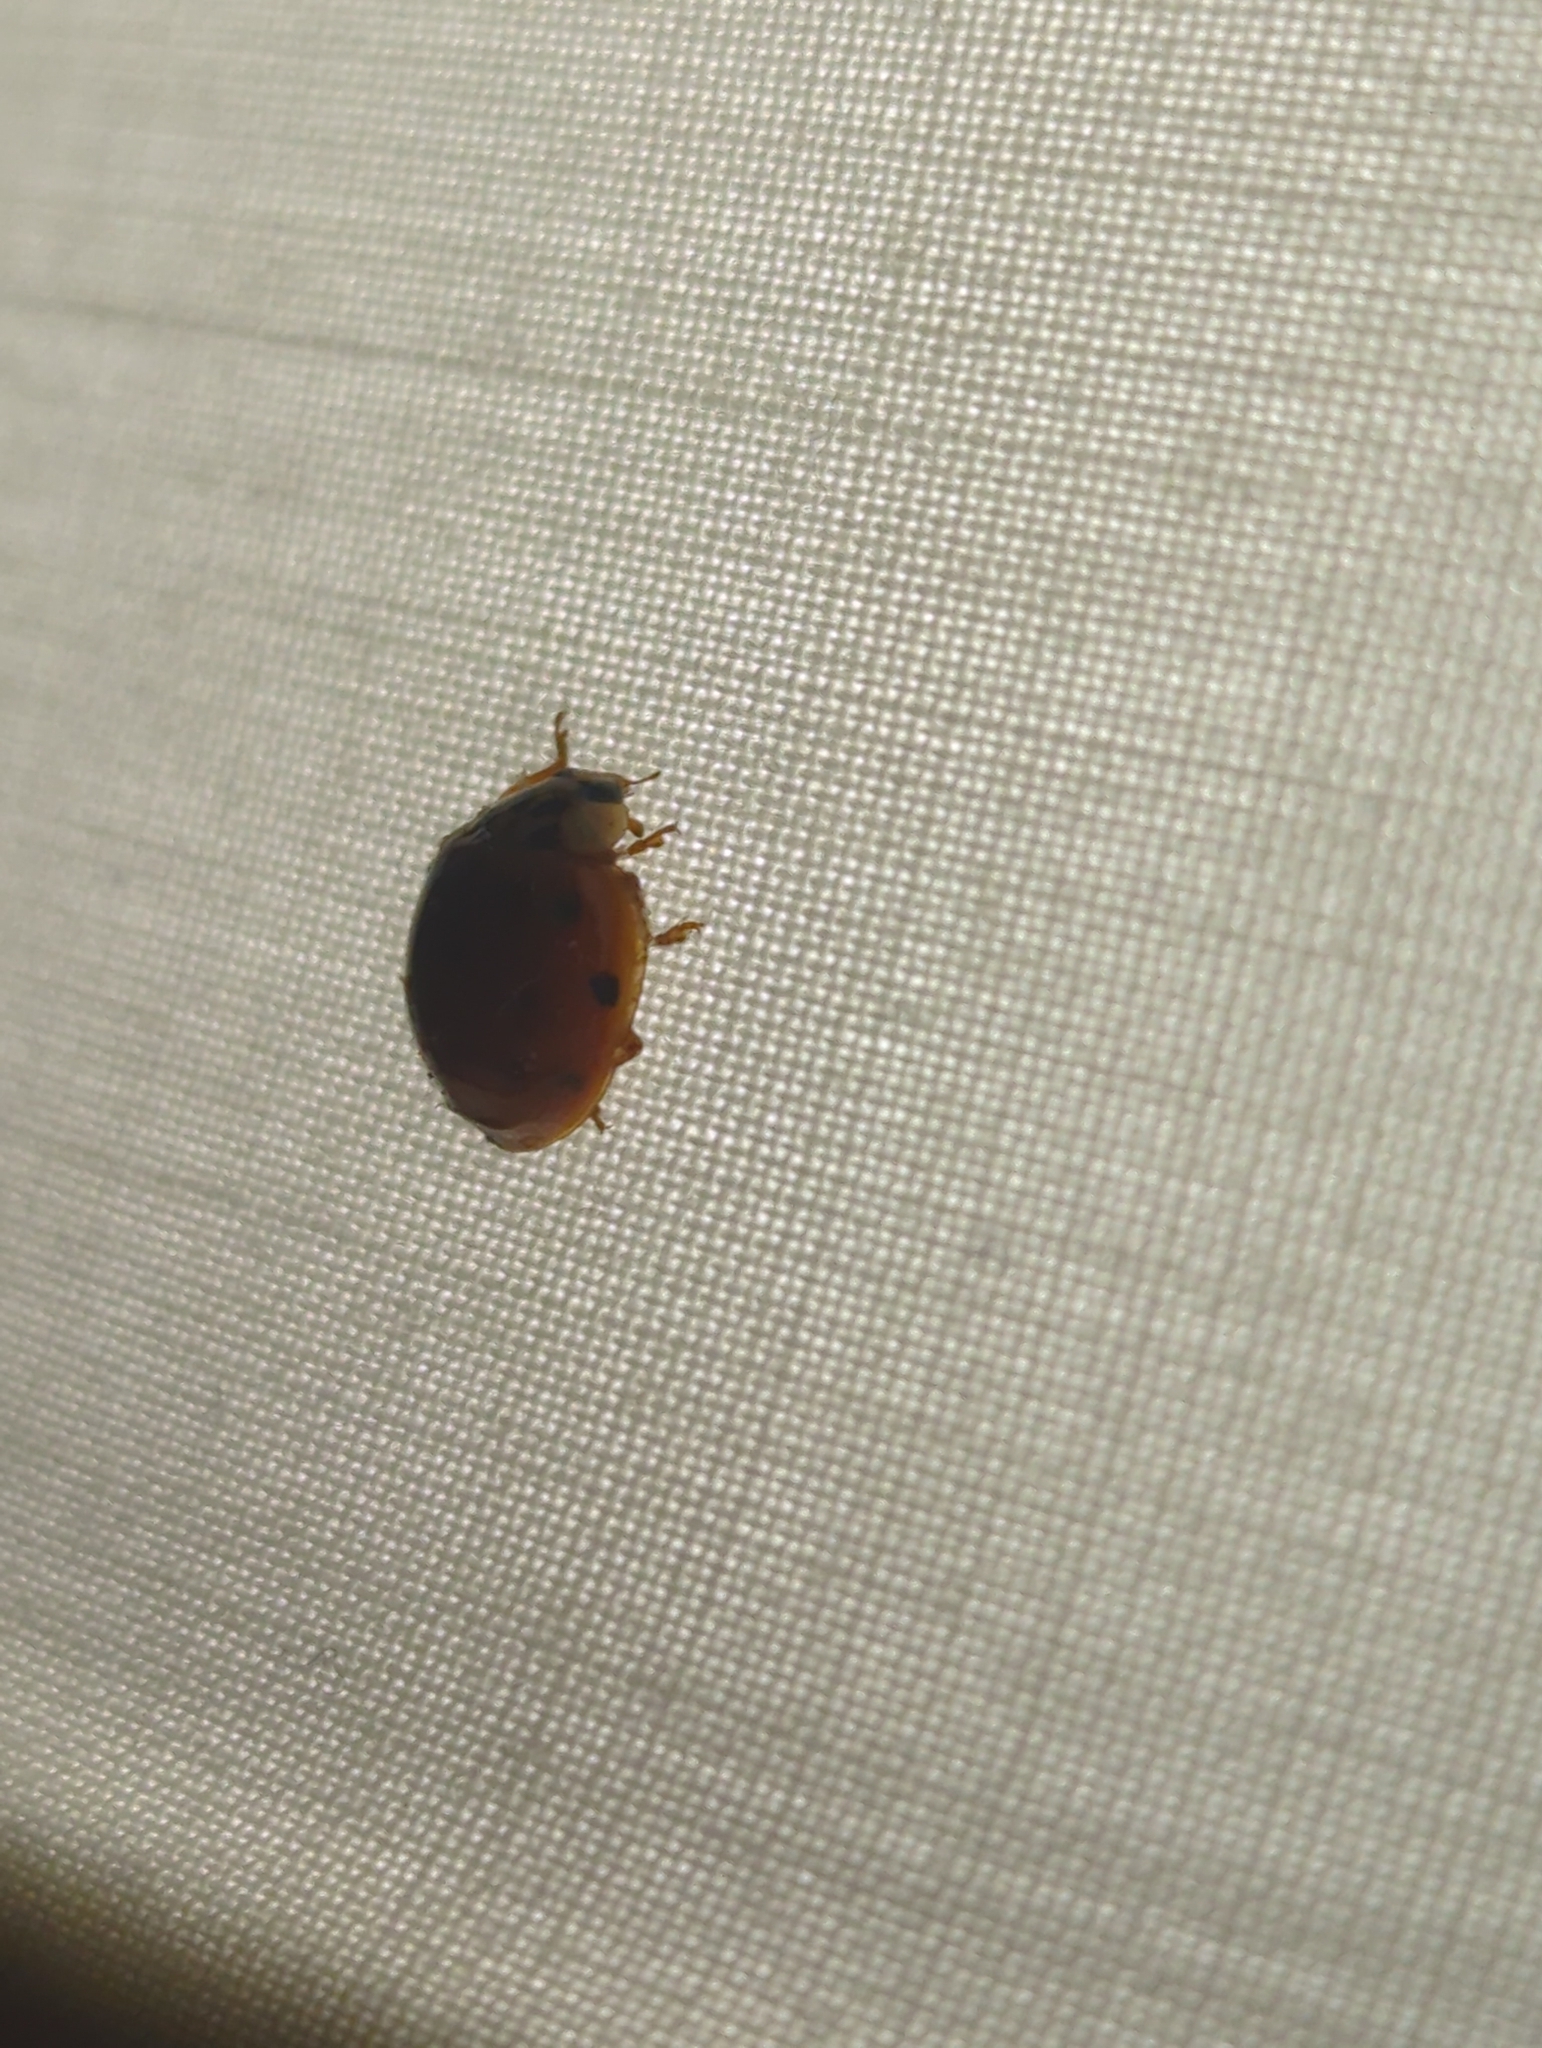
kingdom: Animalia
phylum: Arthropoda
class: Insecta
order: Coleoptera
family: Coccinellidae
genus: Harmonia
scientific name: Harmonia axyridis
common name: Harlequin ladybird
